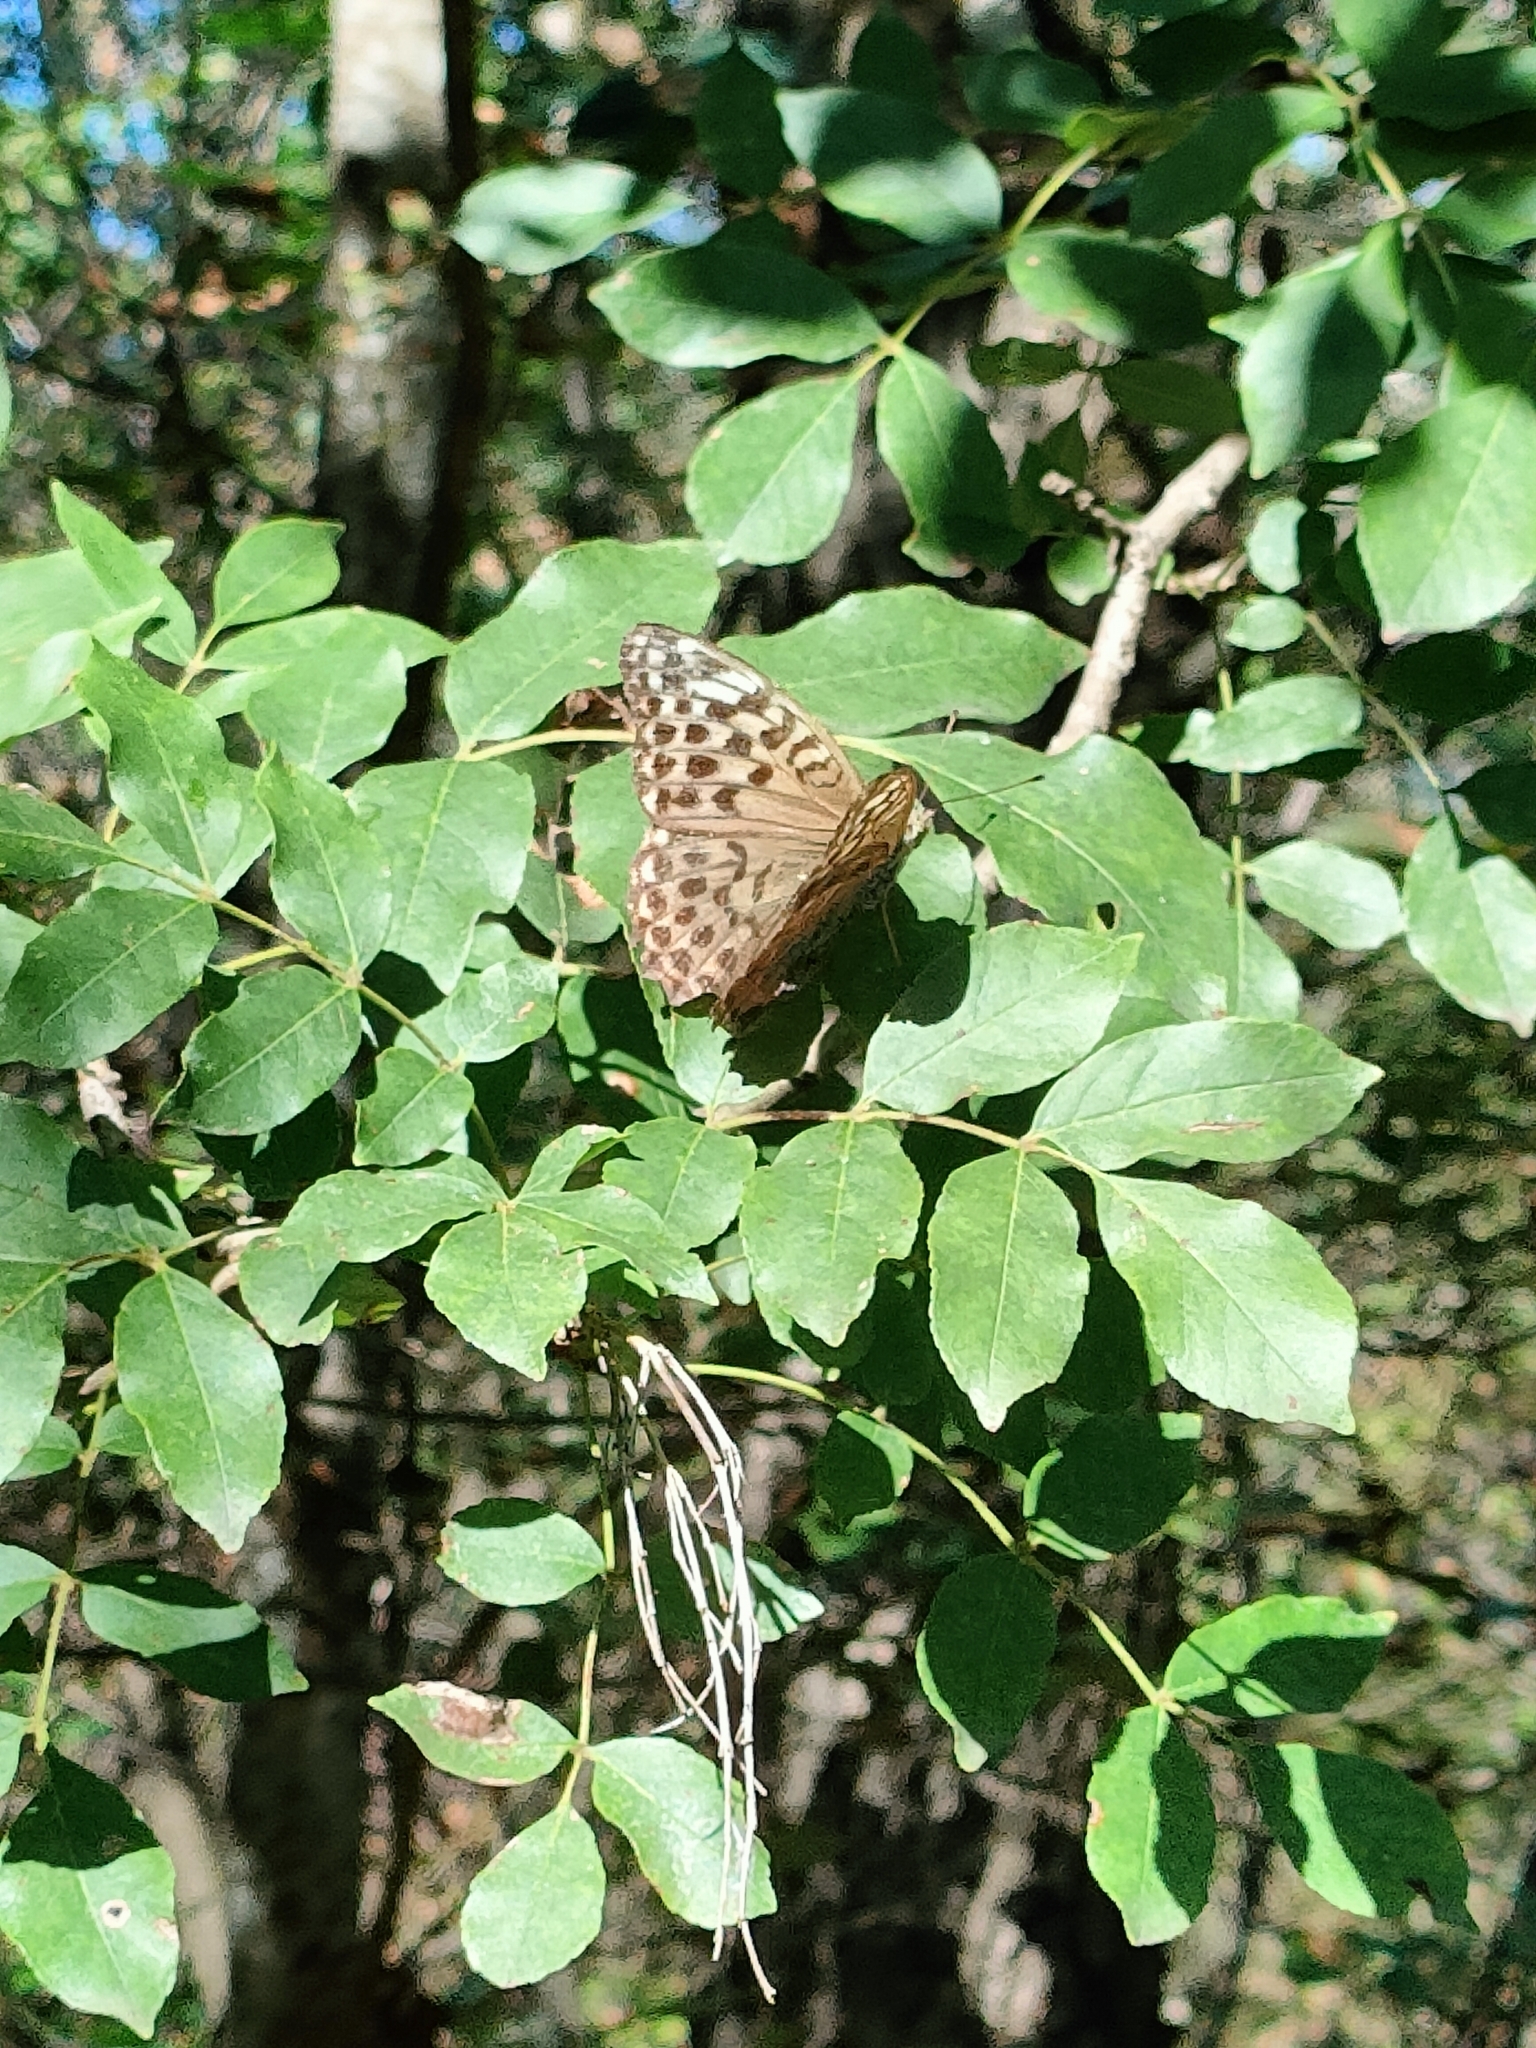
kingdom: Animalia
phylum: Arthropoda
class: Insecta
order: Lepidoptera
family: Nymphalidae
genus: Argynnis
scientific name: Argynnis paphia
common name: Silver-washed fritillary
